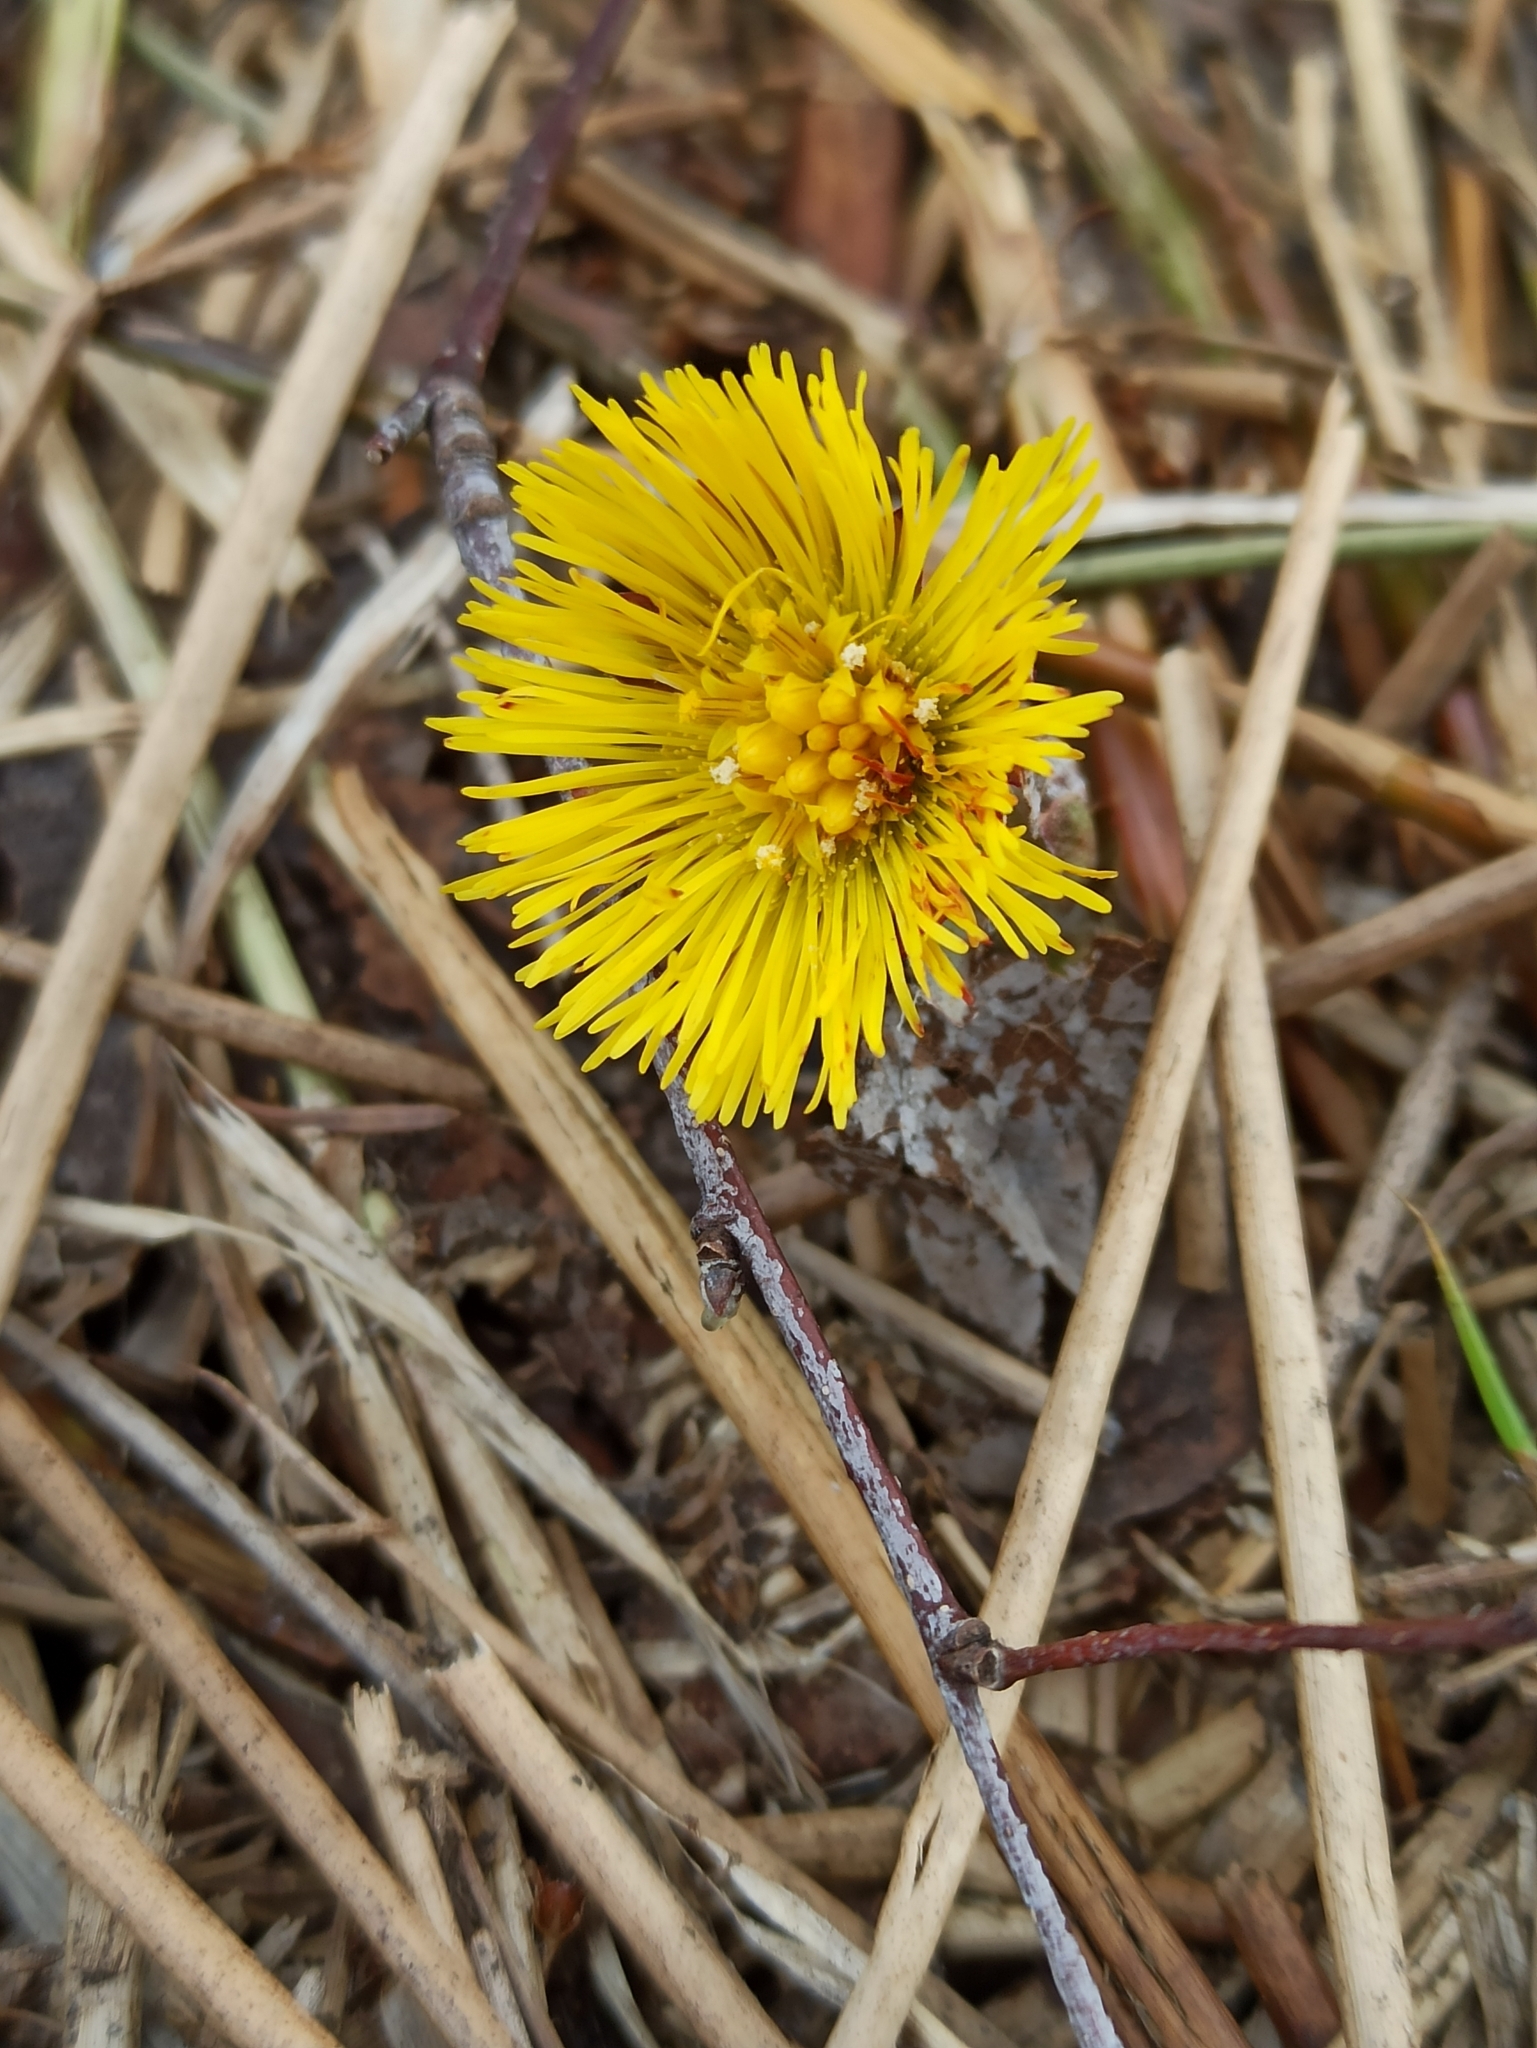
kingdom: Plantae
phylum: Tracheophyta
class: Magnoliopsida
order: Asterales
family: Asteraceae
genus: Tussilago
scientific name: Tussilago farfara
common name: Coltsfoot
